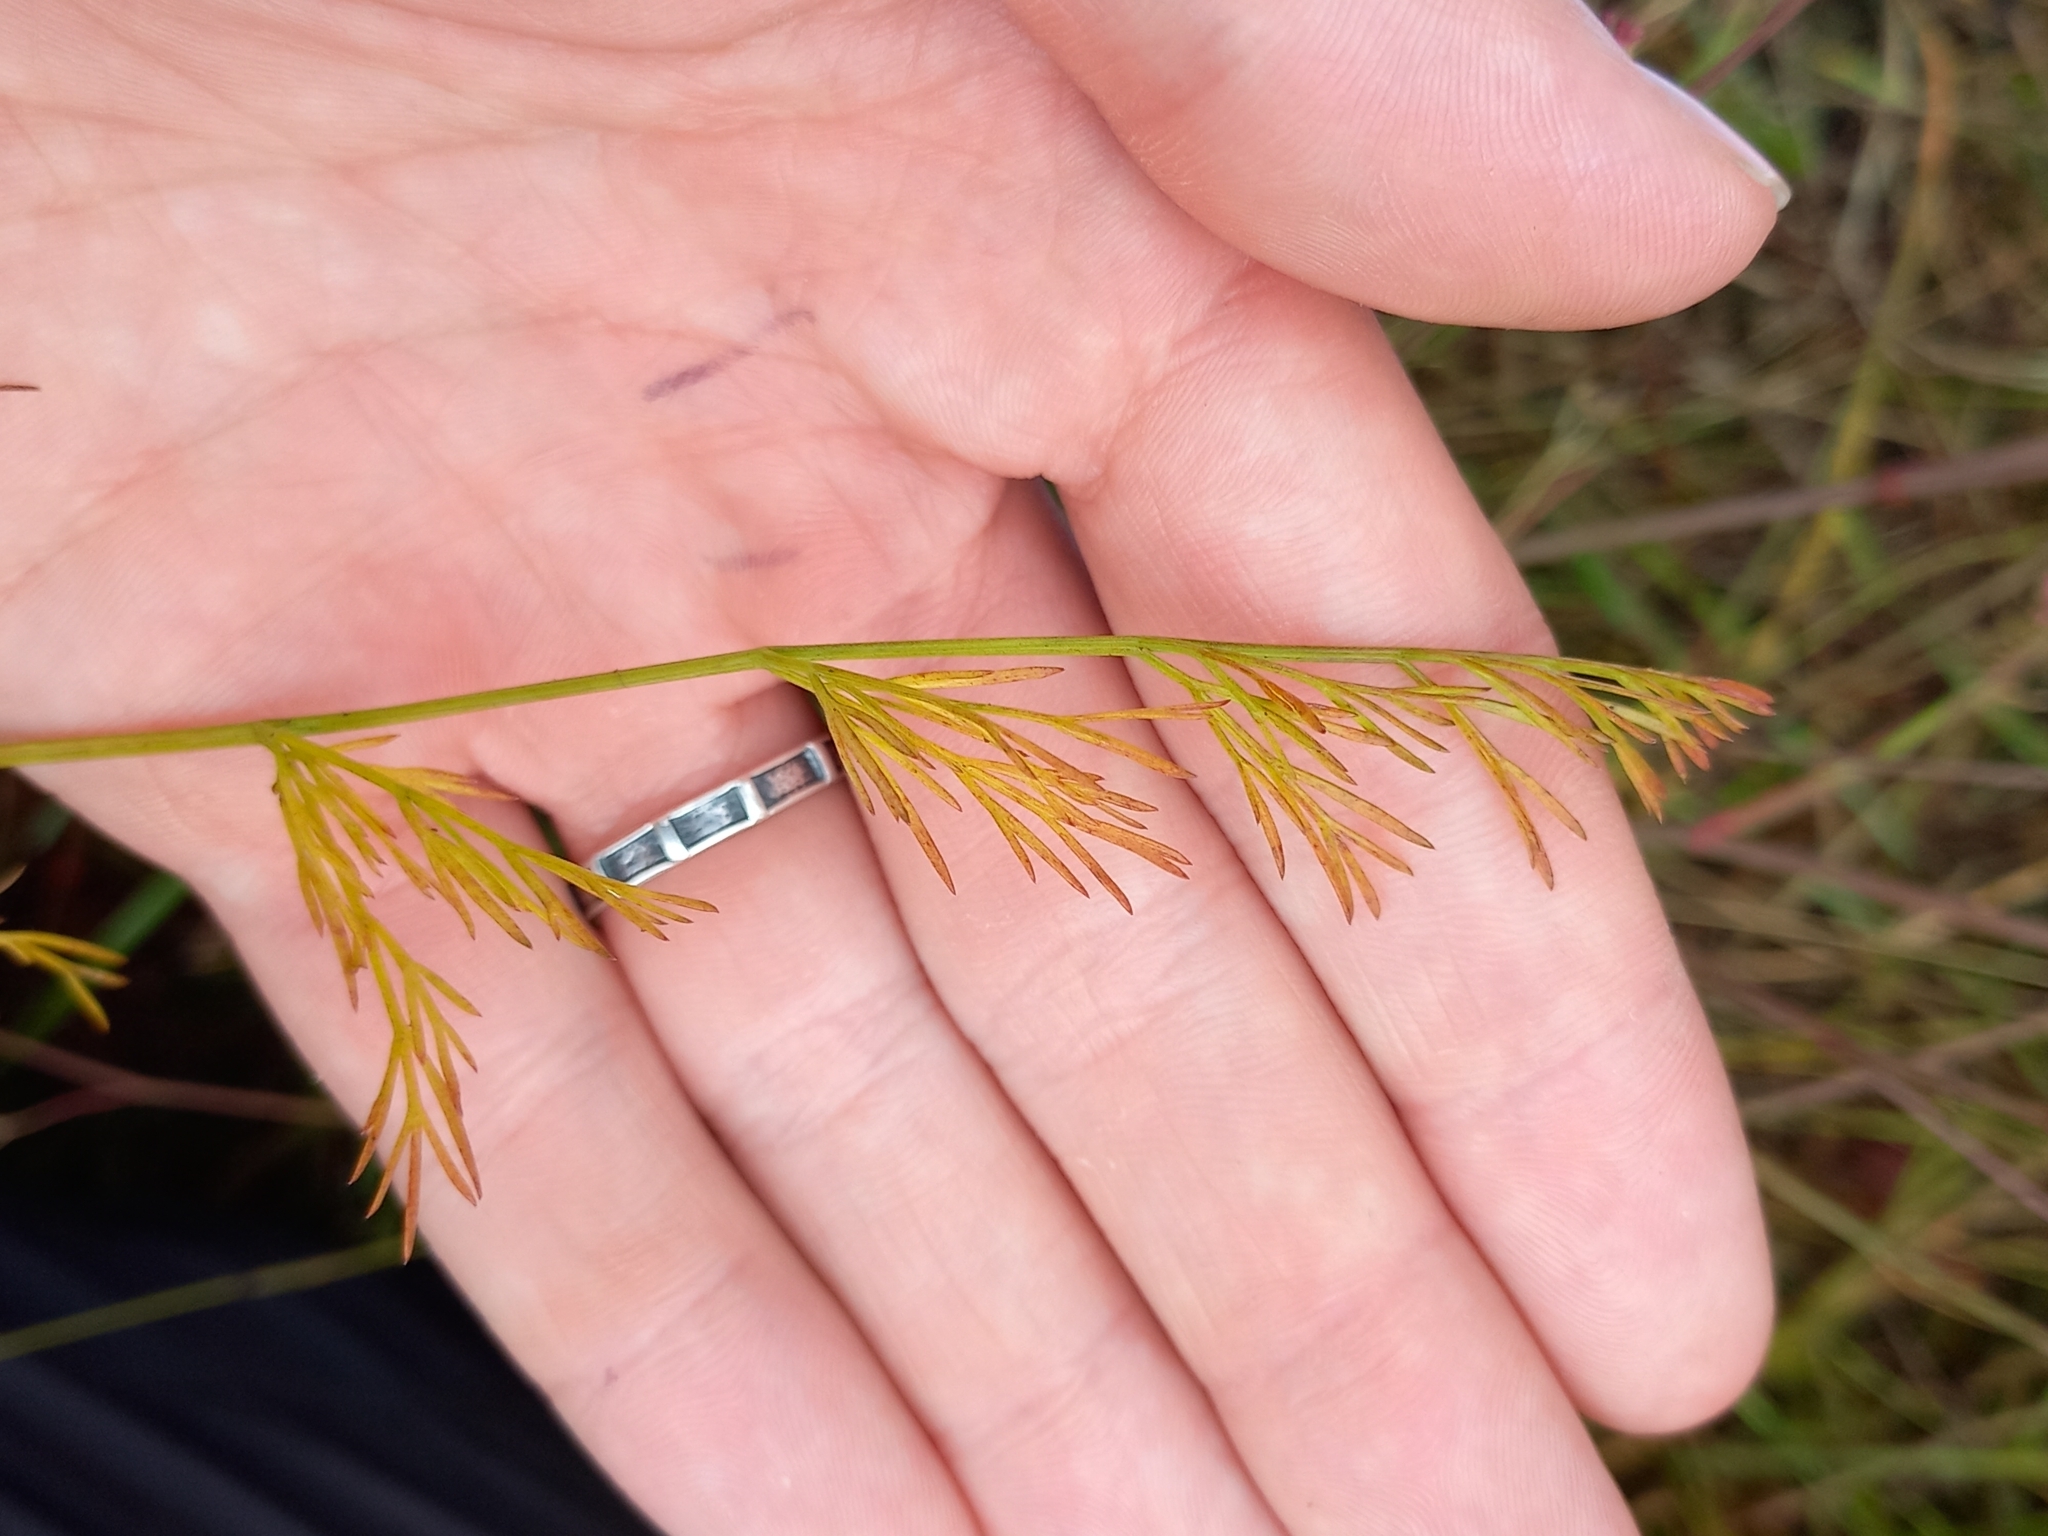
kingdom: Plantae
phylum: Tracheophyta
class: Magnoliopsida
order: Apiales
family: Apiaceae
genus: Seseli
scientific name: Seseli montanum
